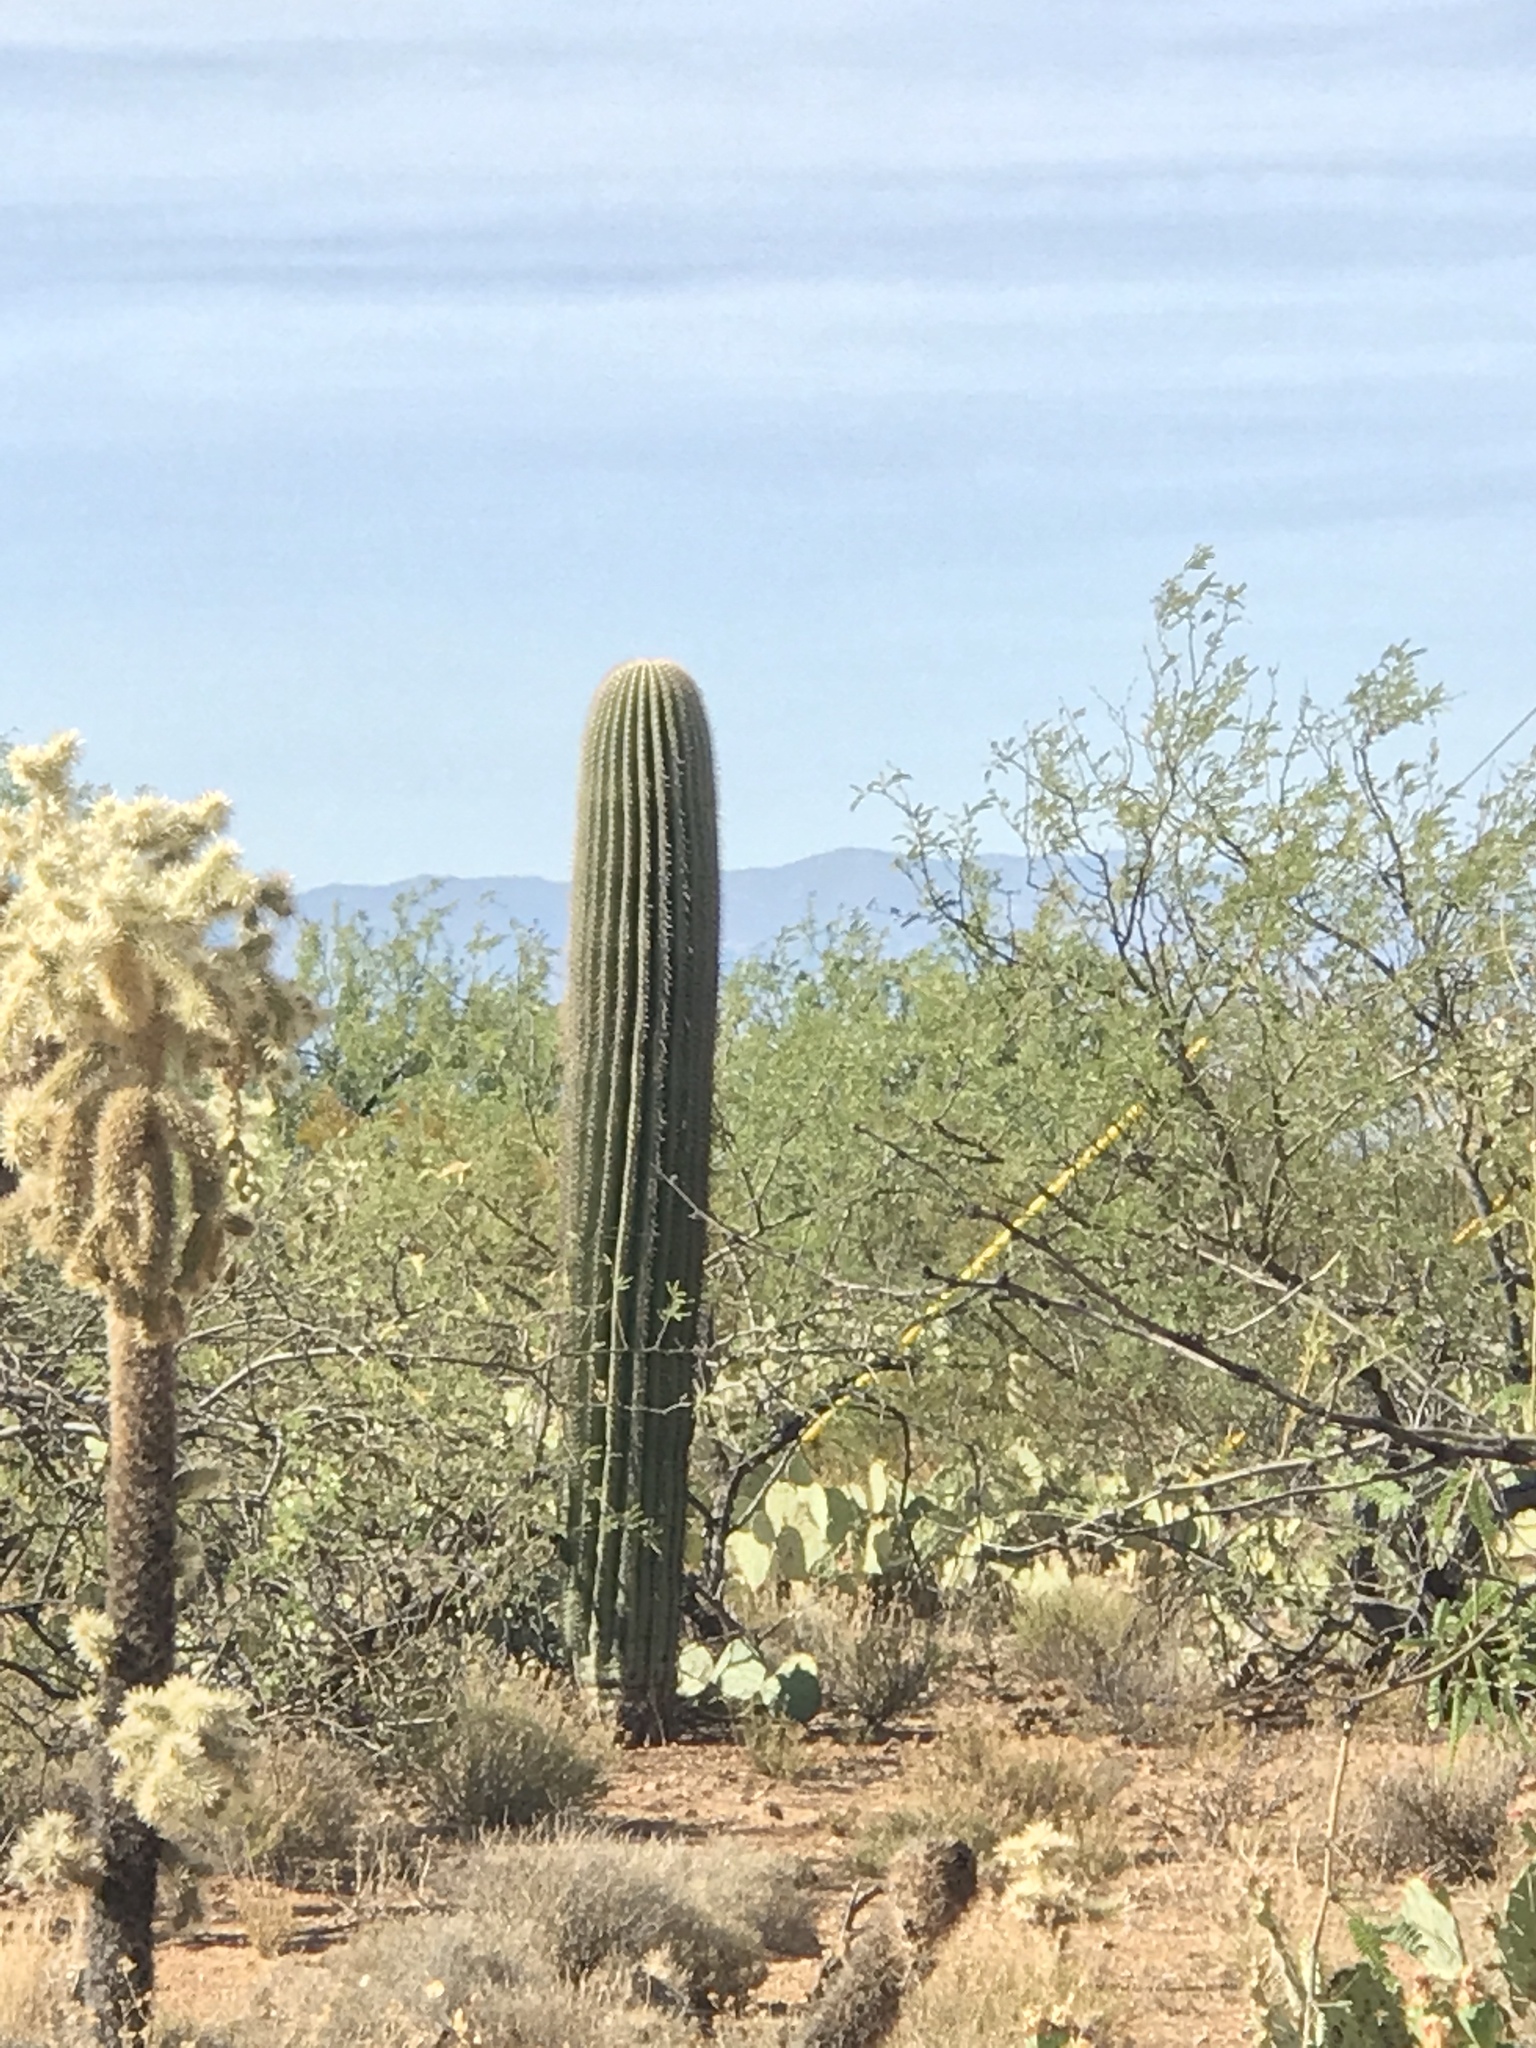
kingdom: Plantae
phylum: Tracheophyta
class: Magnoliopsida
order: Caryophyllales
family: Cactaceae
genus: Carnegiea
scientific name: Carnegiea gigantea
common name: Saguaro
